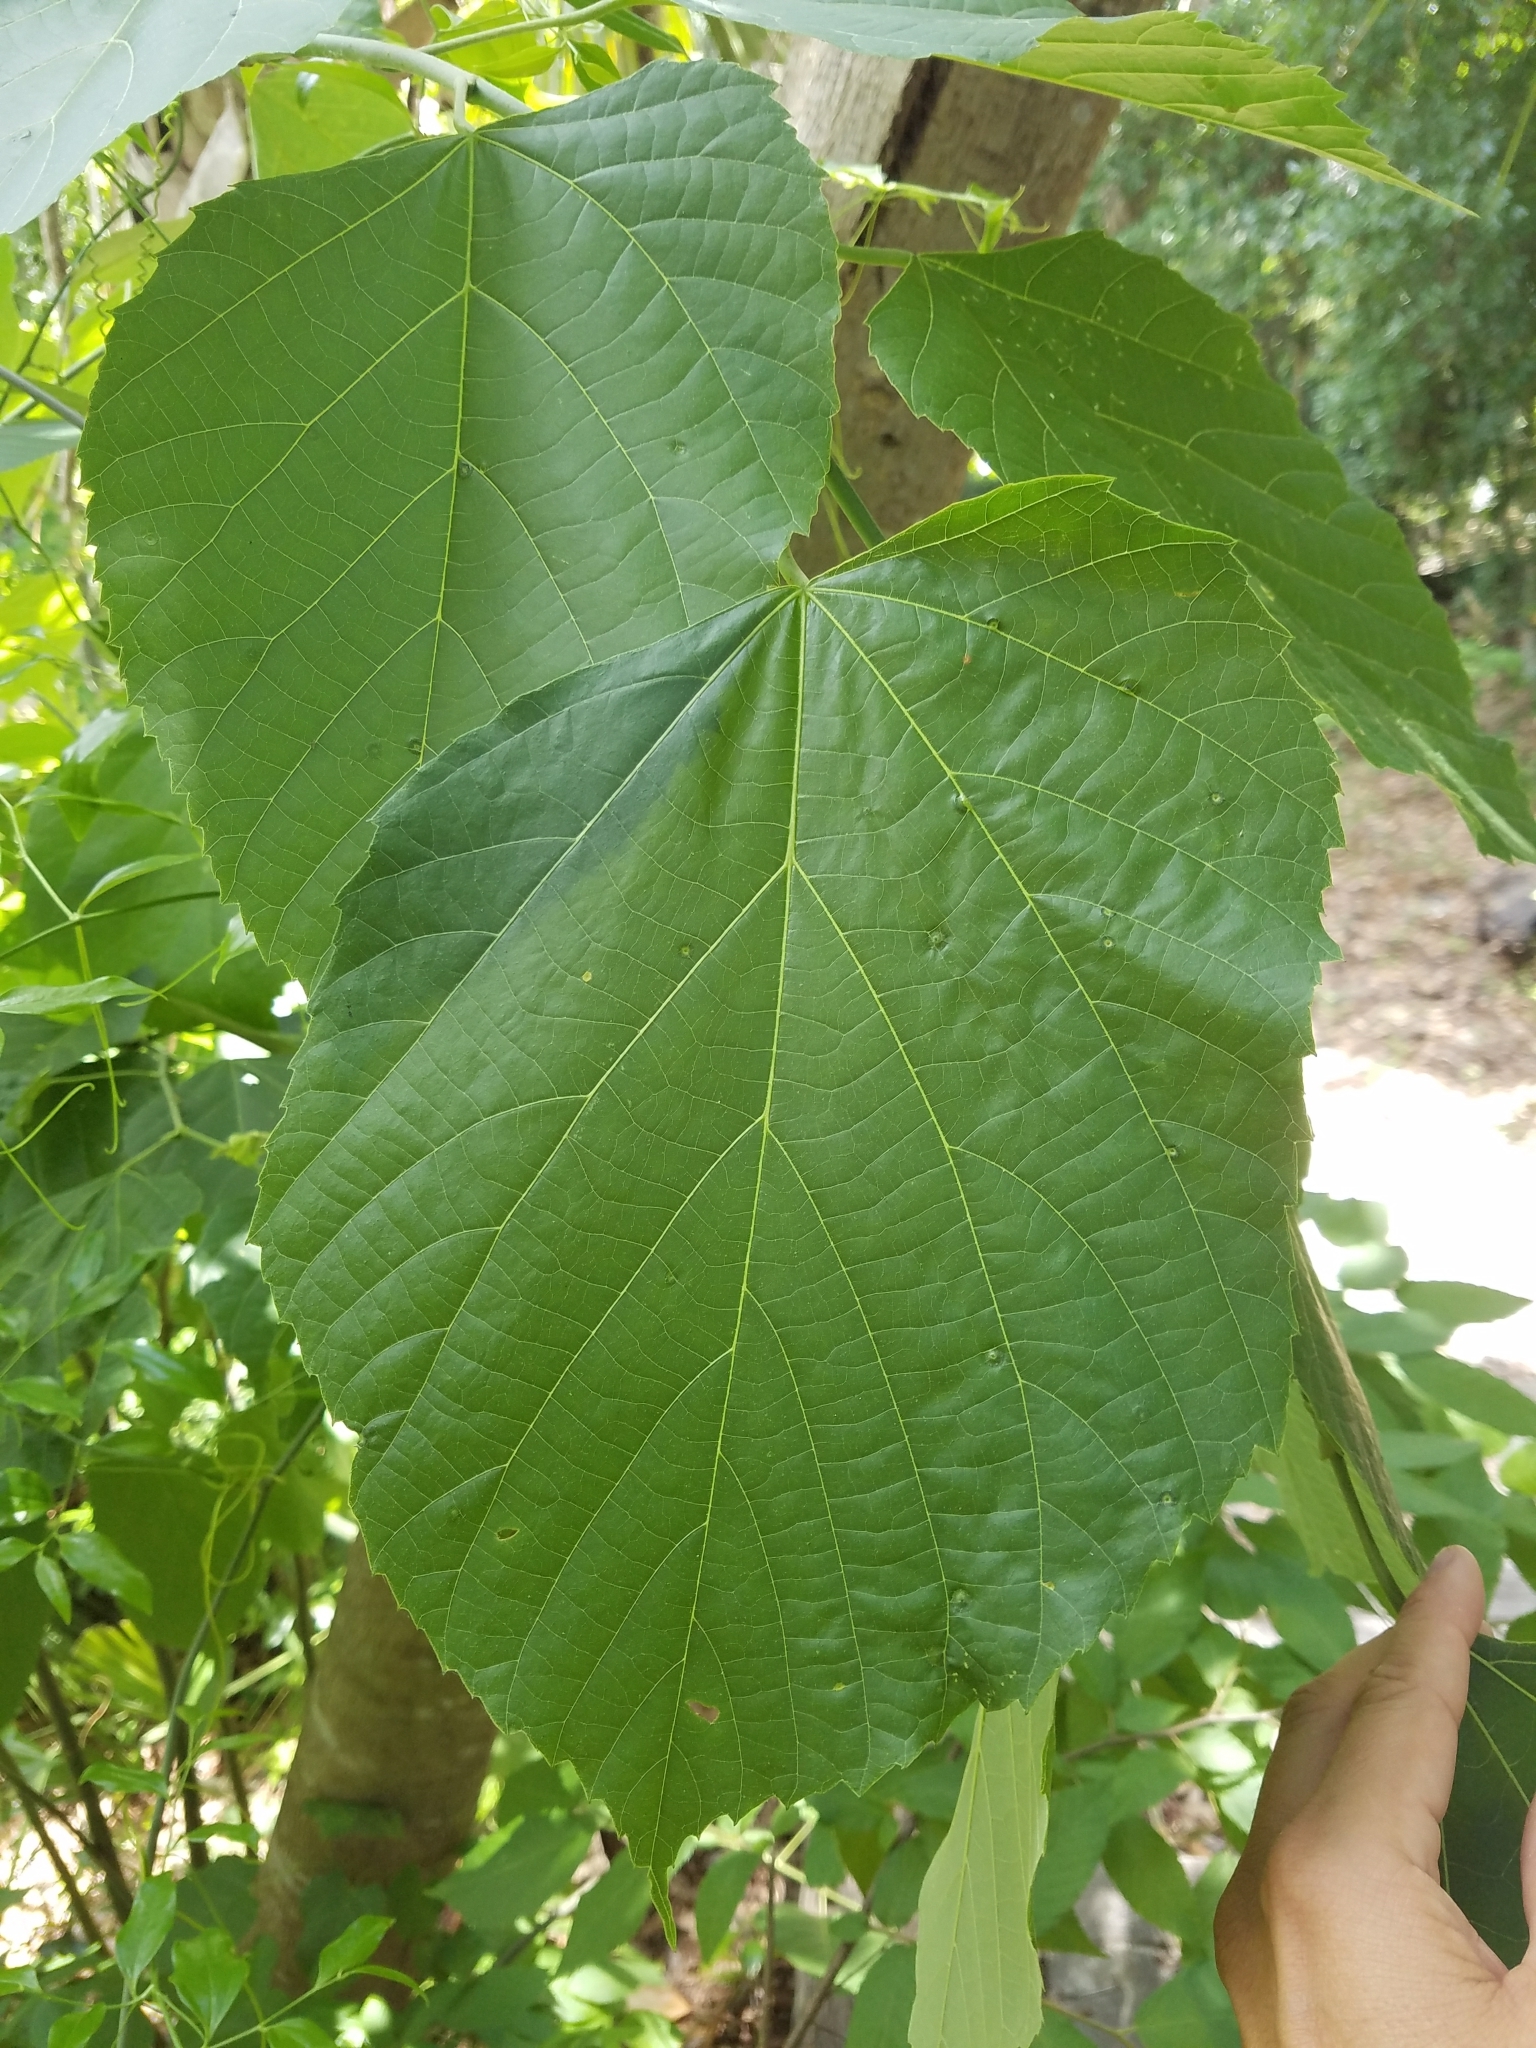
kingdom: Plantae
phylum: Tracheophyta
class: Magnoliopsida
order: Malvales
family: Malvaceae
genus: Tilia
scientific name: Tilia americana
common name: Basswood
